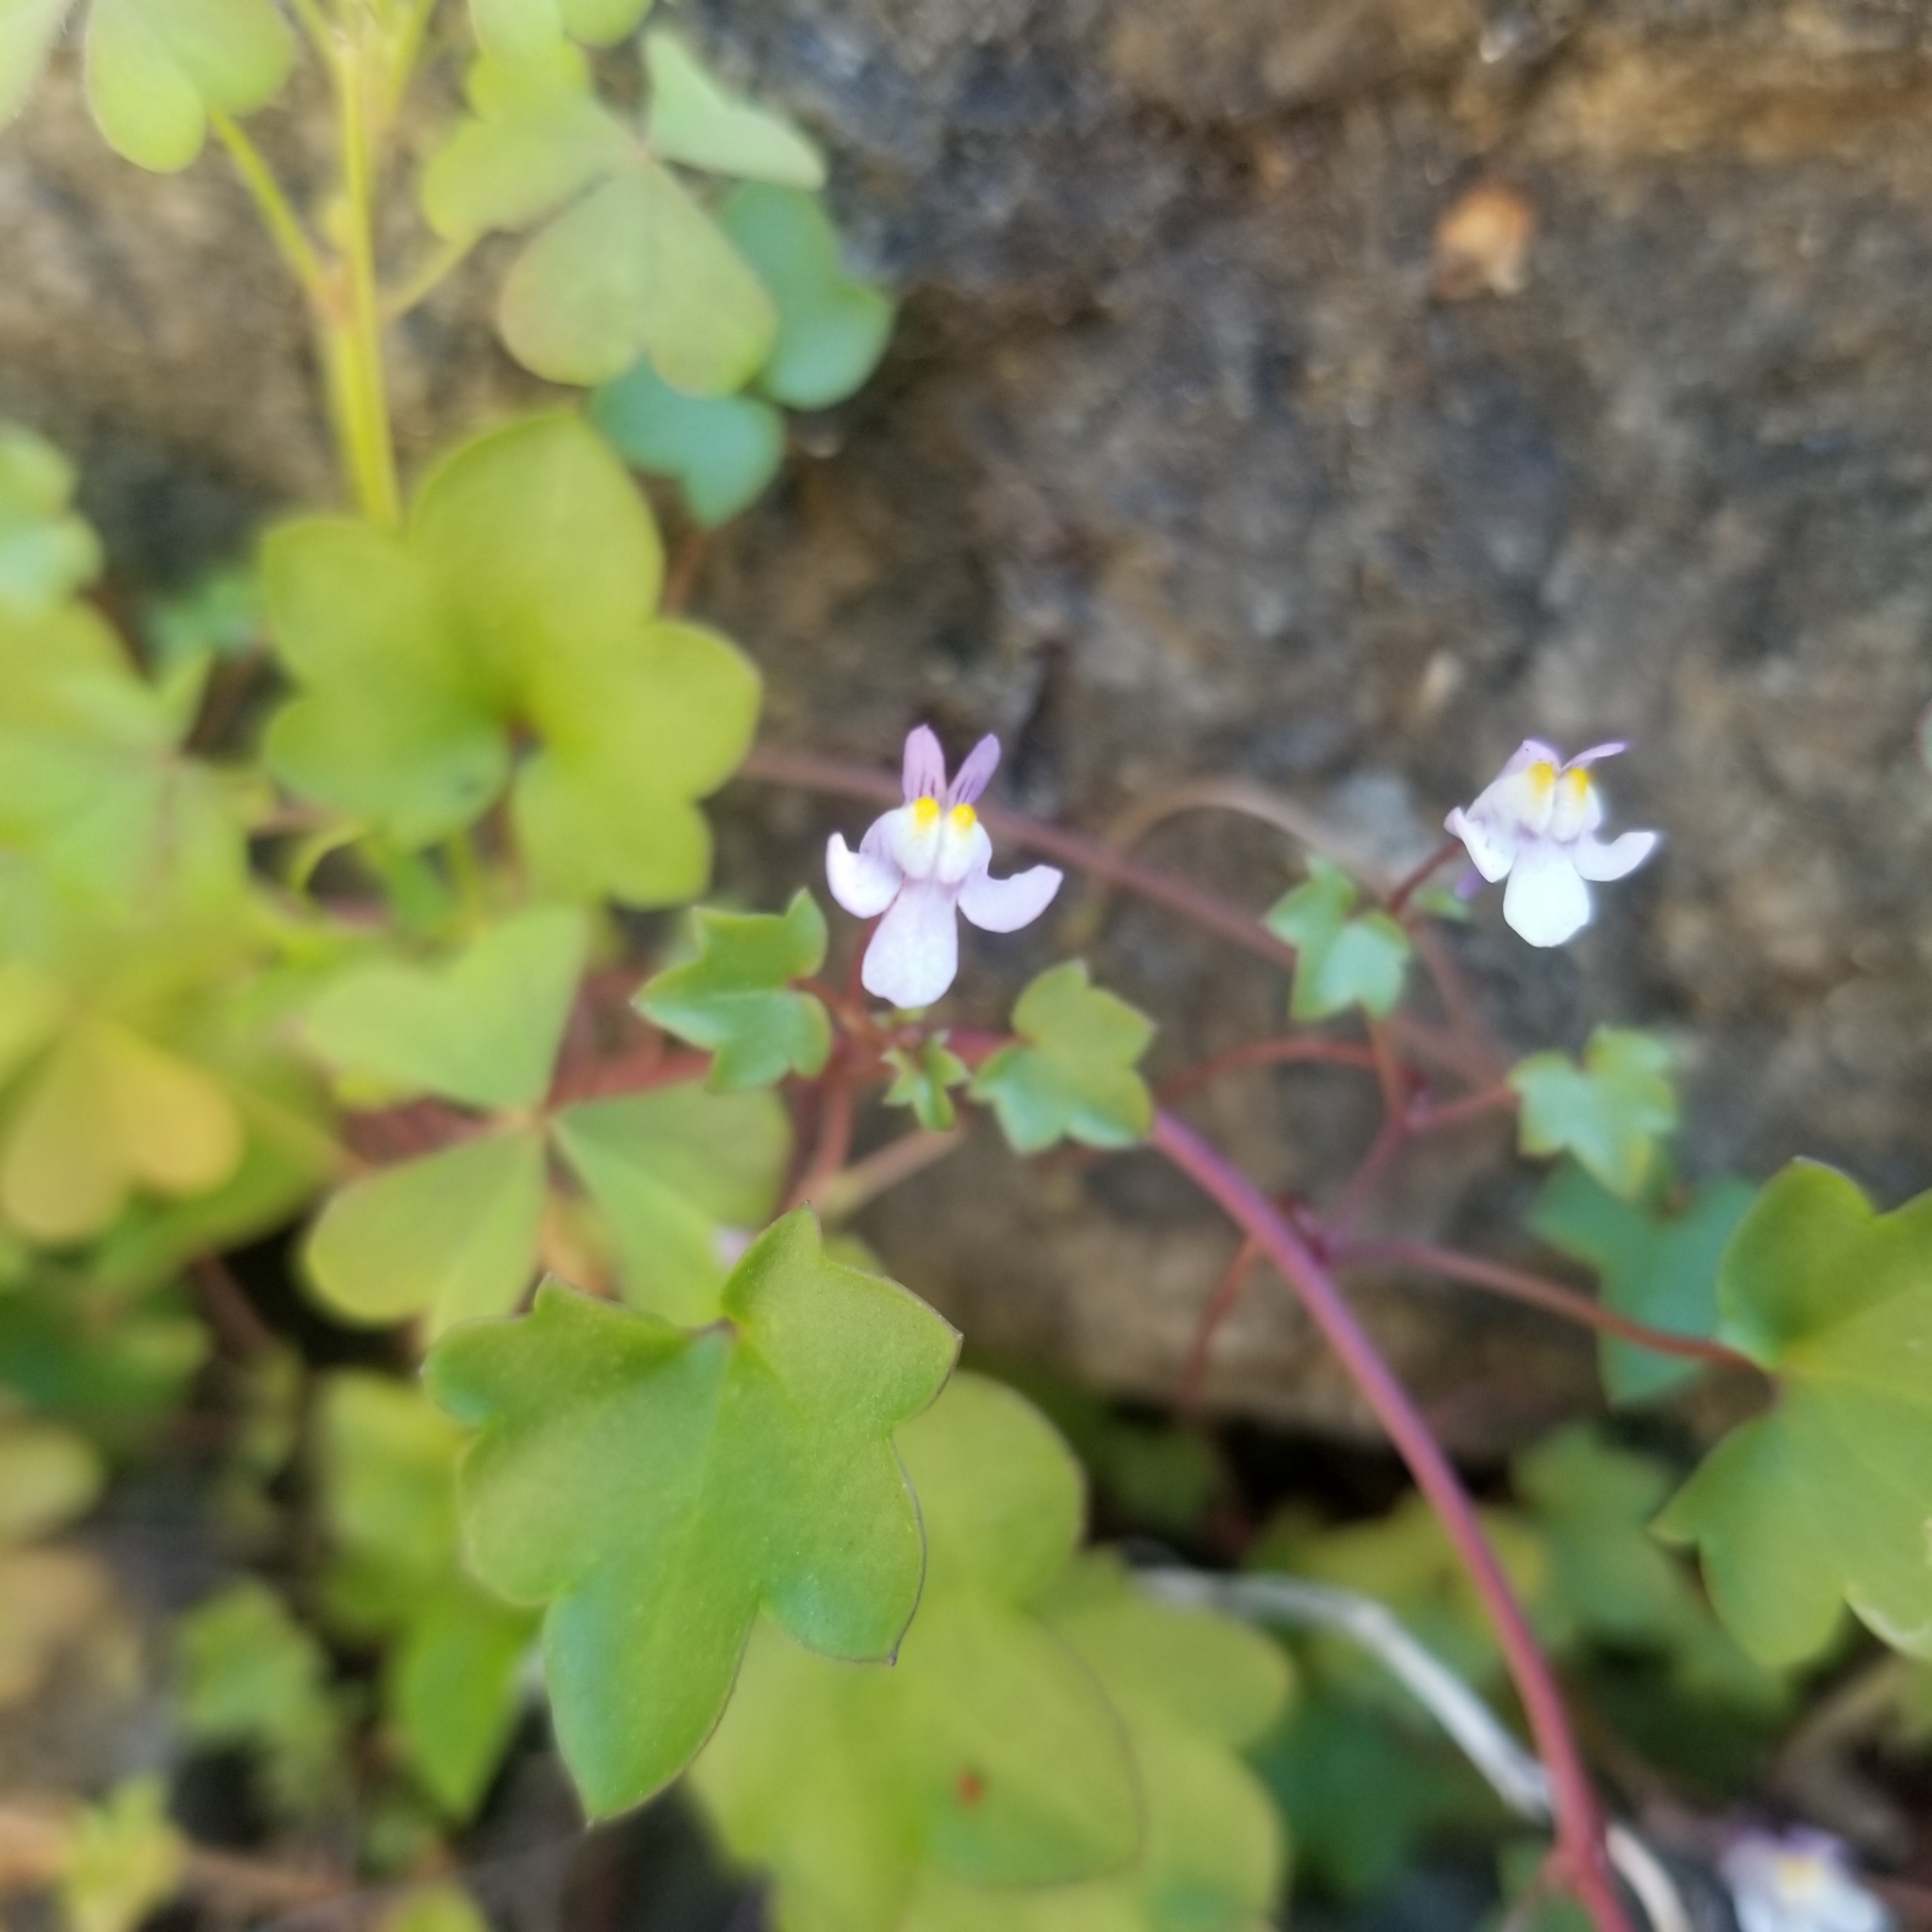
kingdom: Plantae
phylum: Tracheophyta
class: Magnoliopsida
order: Lamiales
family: Plantaginaceae
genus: Cymbalaria
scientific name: Cymbalaria muralis
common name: Ivy-leaved toadflax
